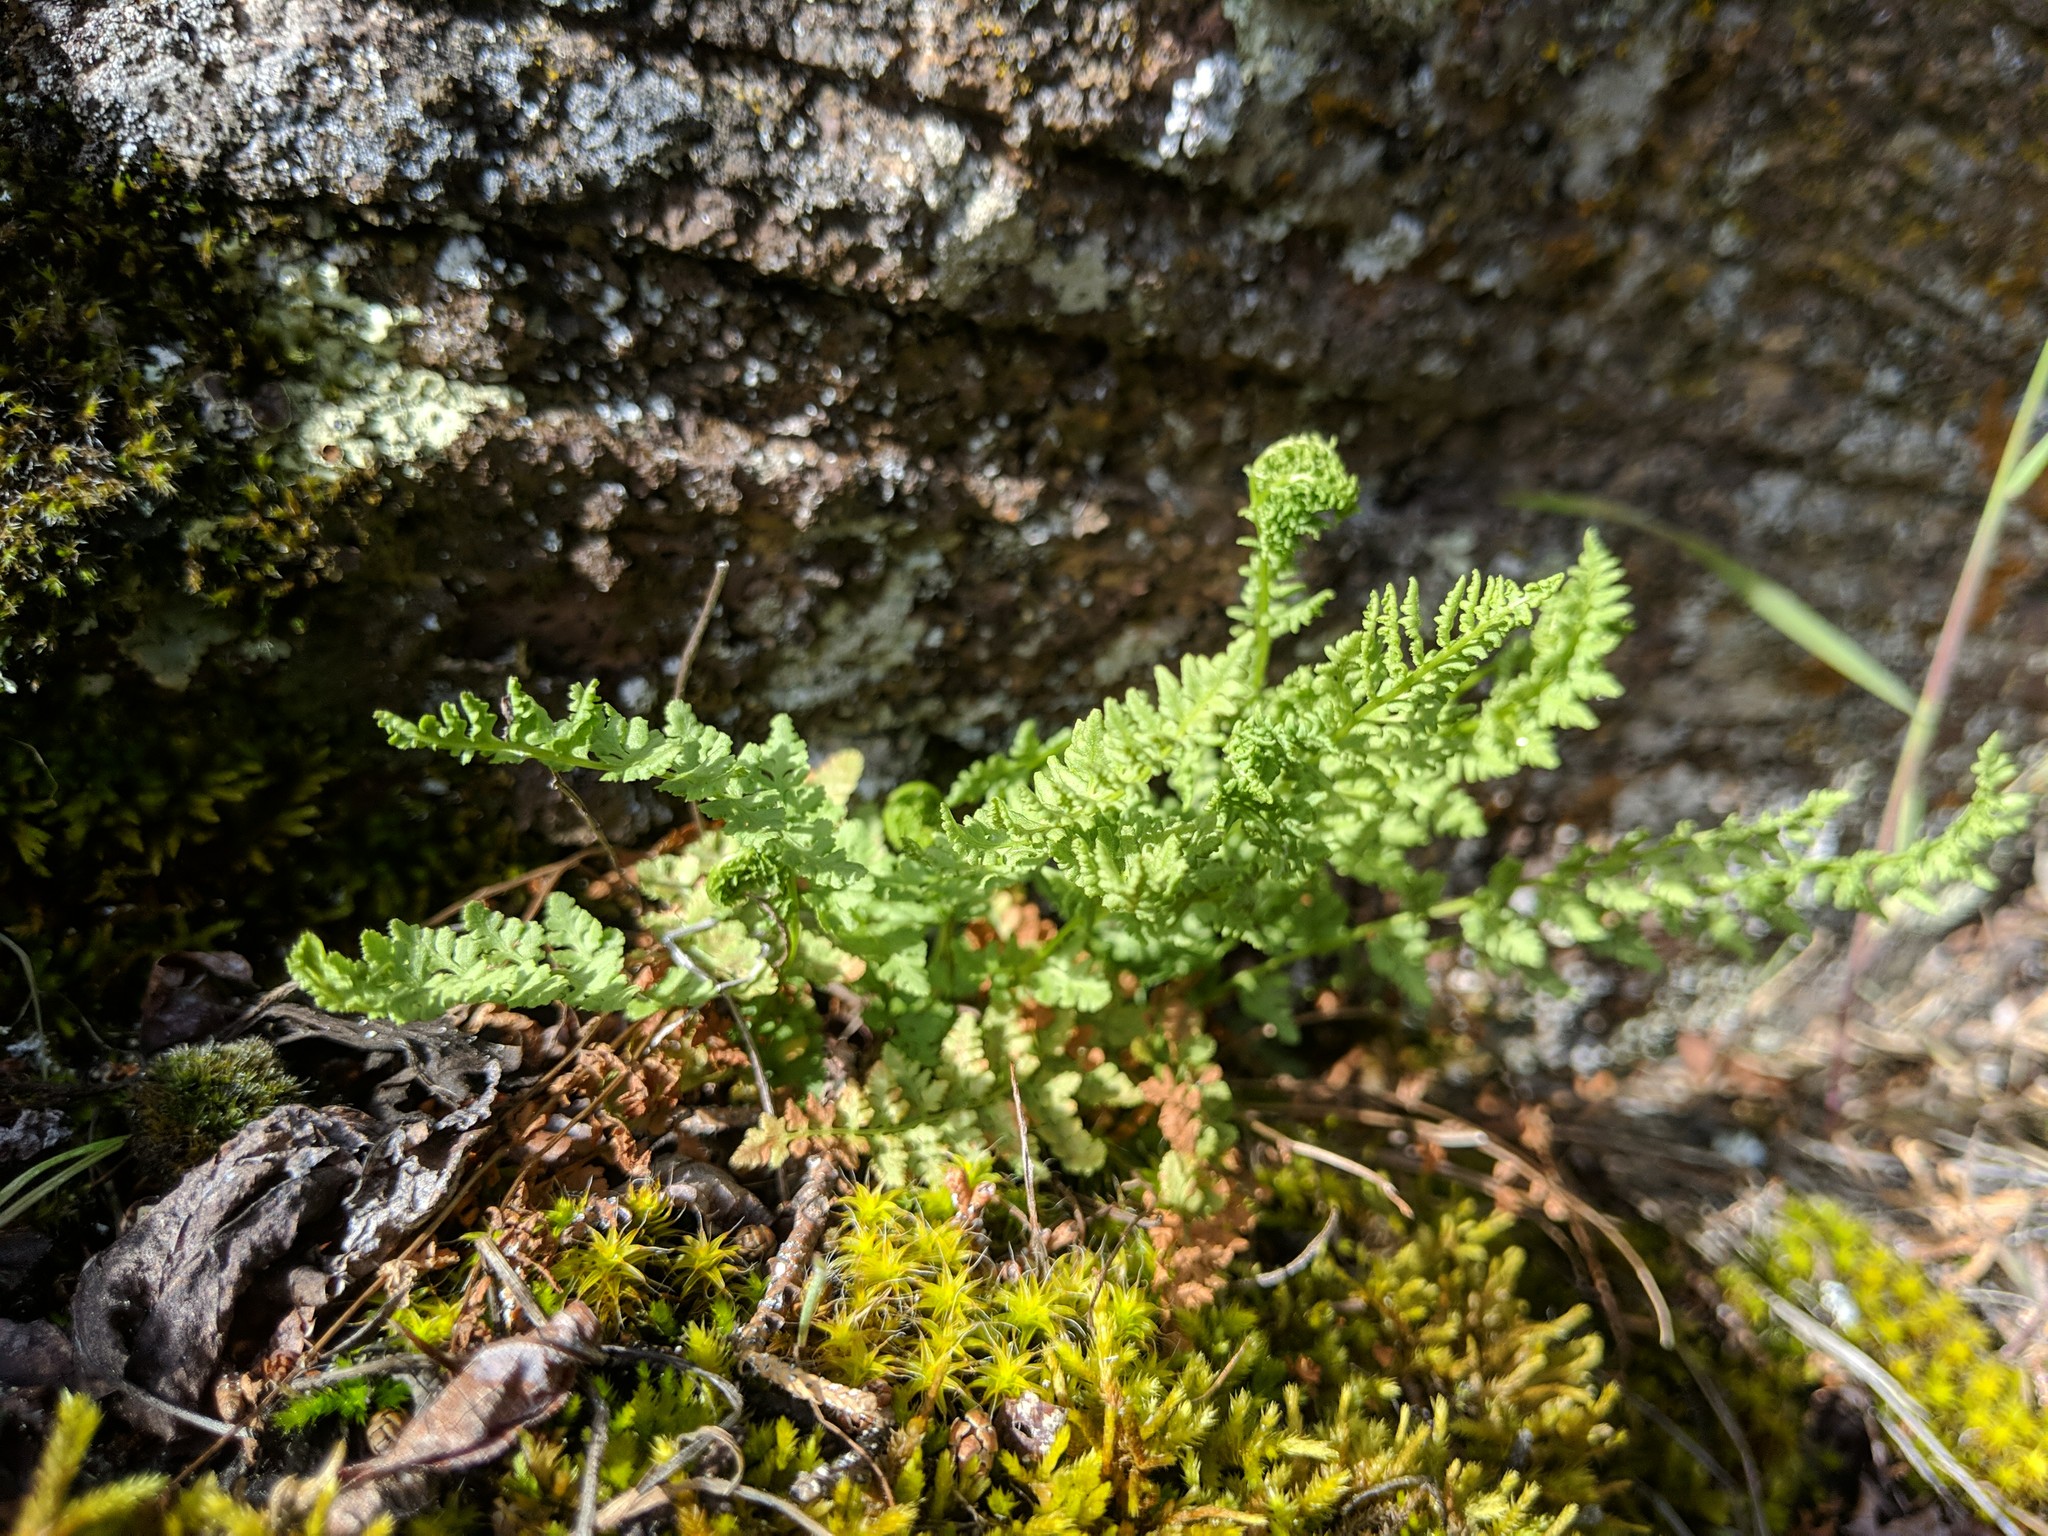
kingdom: Plantae
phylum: Tracheophyta
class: Polypodiopsida
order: Polypodiales
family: Woodsiaceae
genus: Physematium
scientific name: Physematium oreganum
